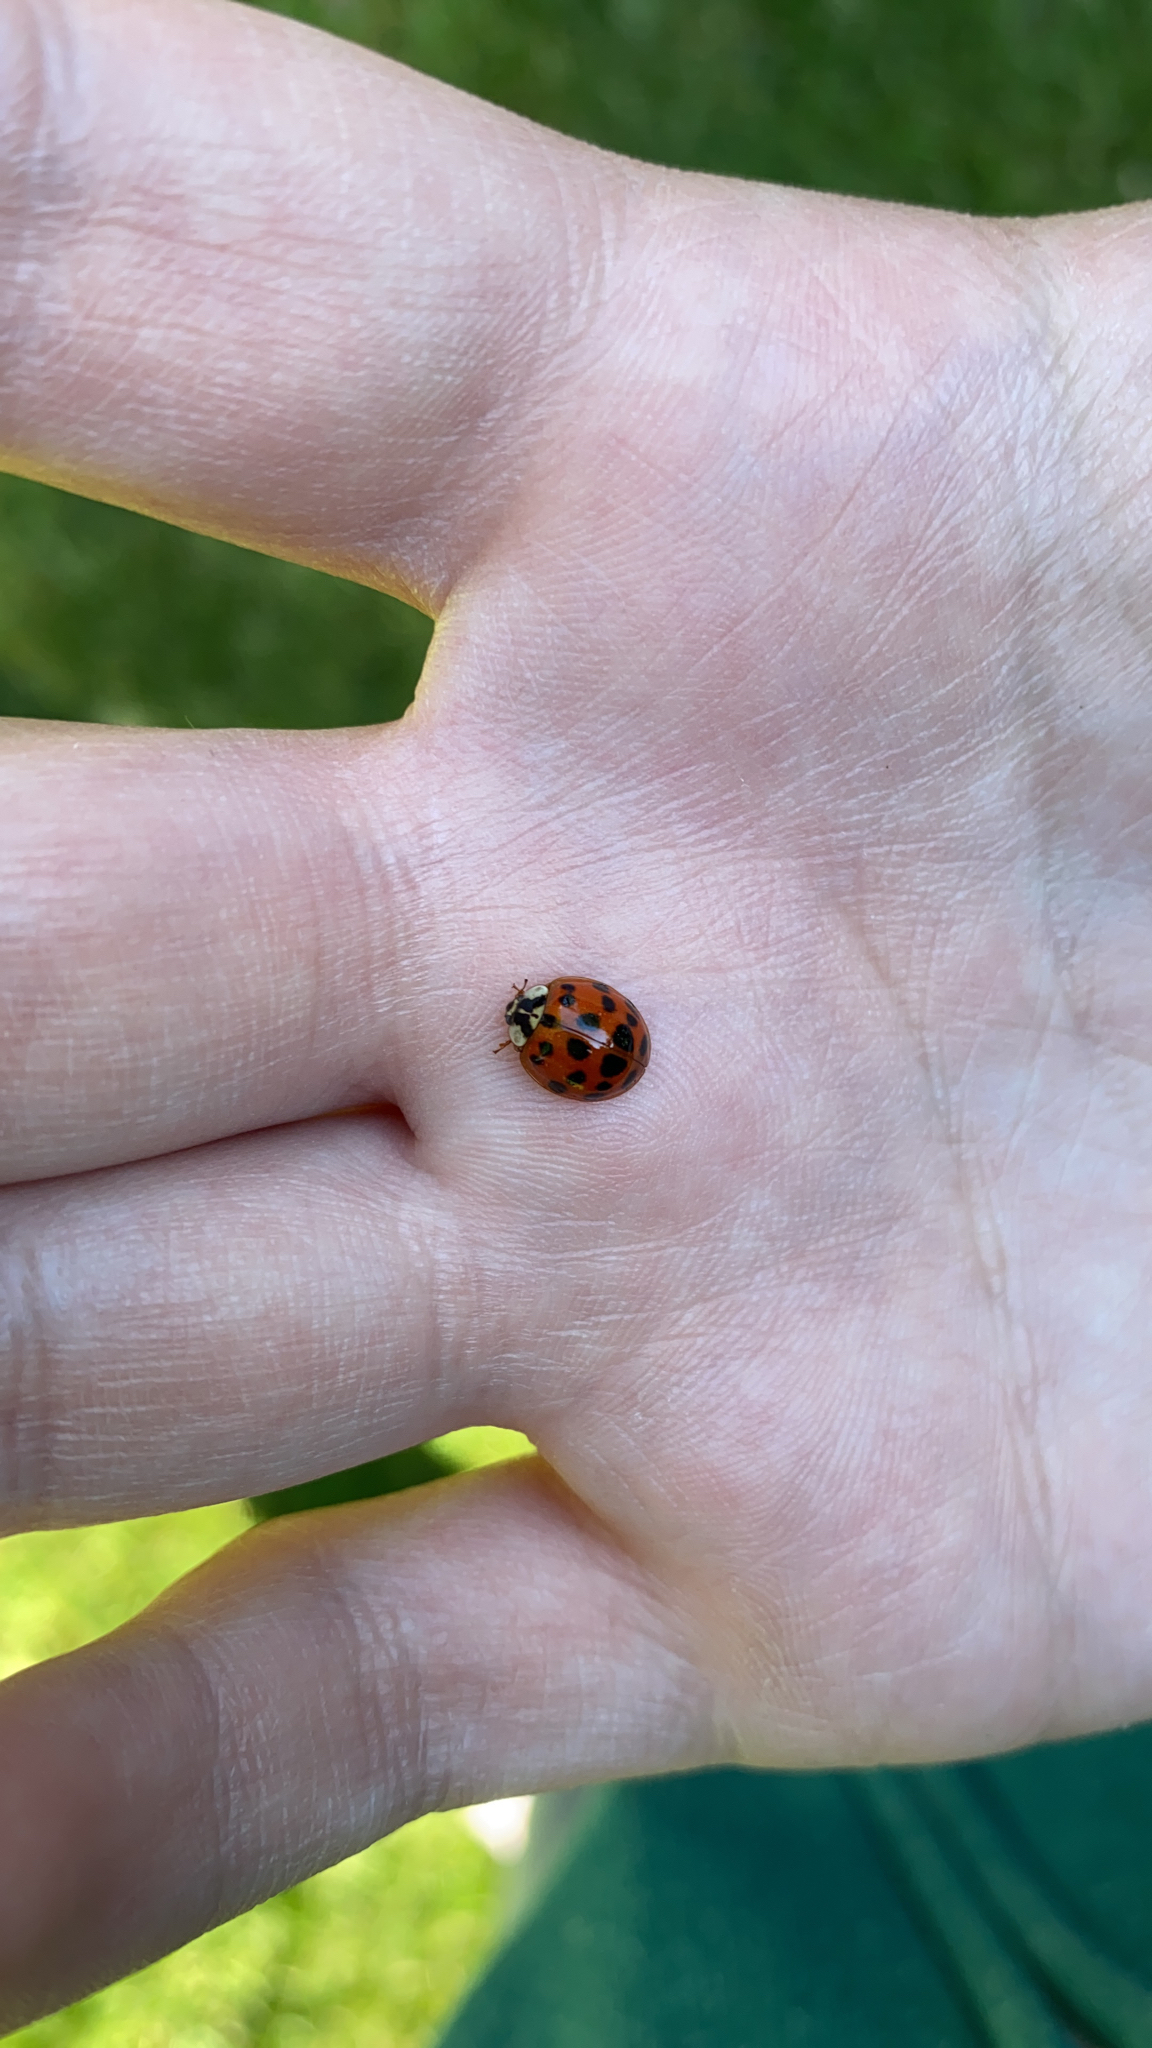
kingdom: Animalia
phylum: Arthropoda
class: Insecta
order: Coleoptera
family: Coccinellidae
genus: Harmonia
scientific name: Harmonia axyridis
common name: Harlequin ladybird
